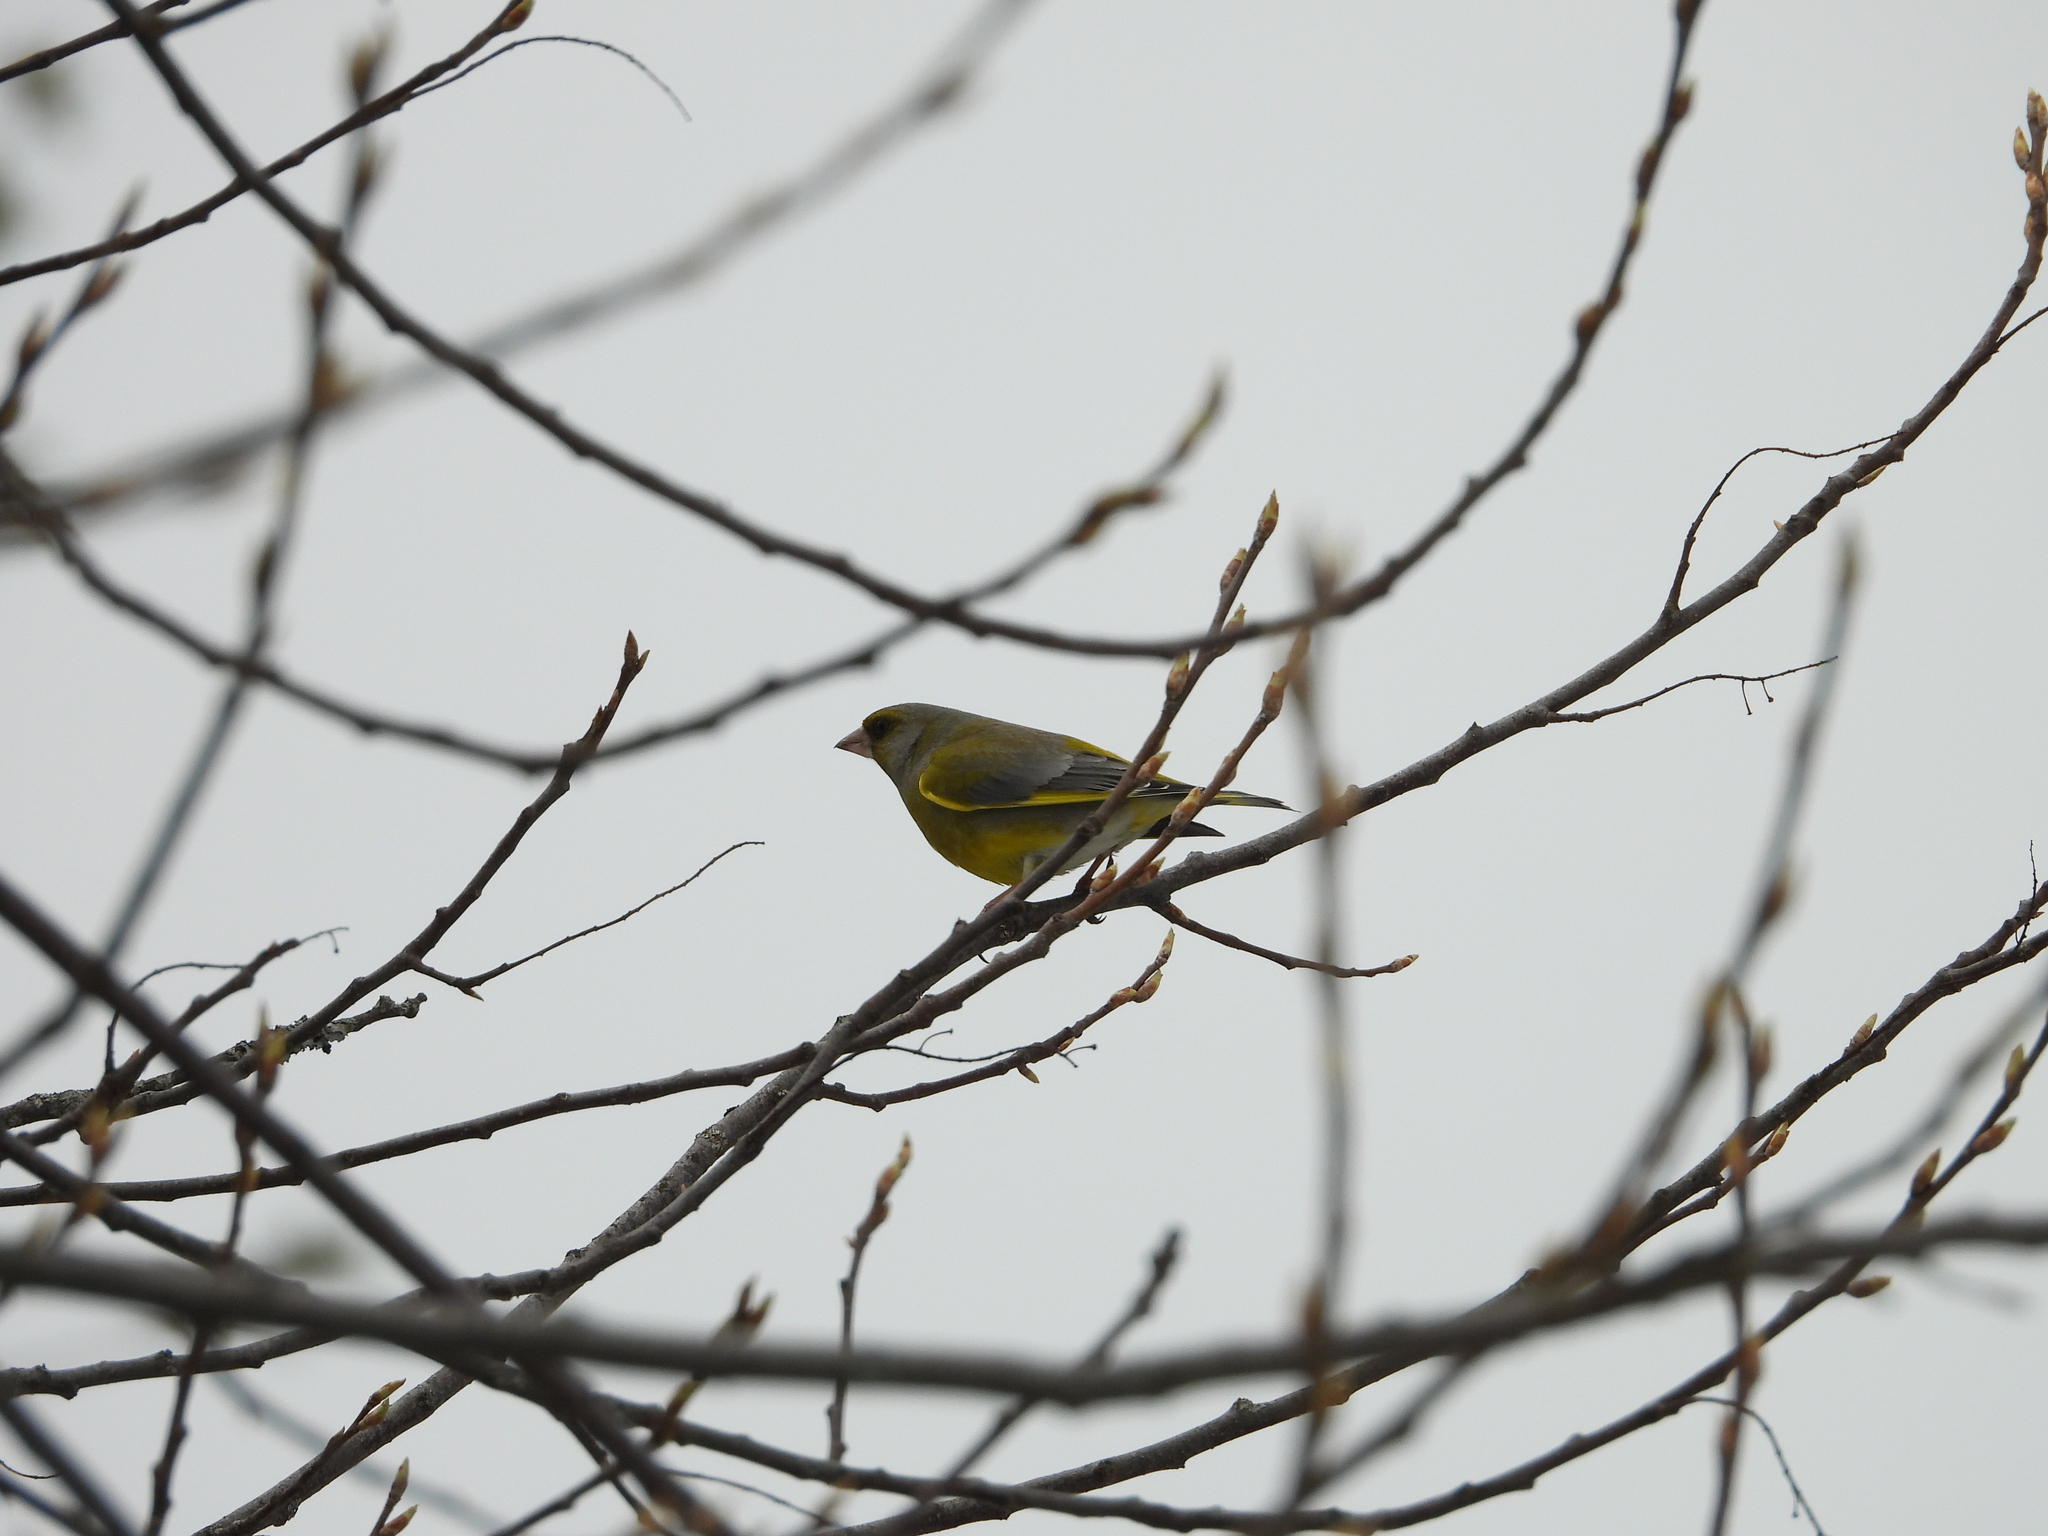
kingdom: Plantae
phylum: Tracheophyta
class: Liliopsida
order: Poales
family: Poaceae
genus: Chloris
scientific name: Chloris chloris
